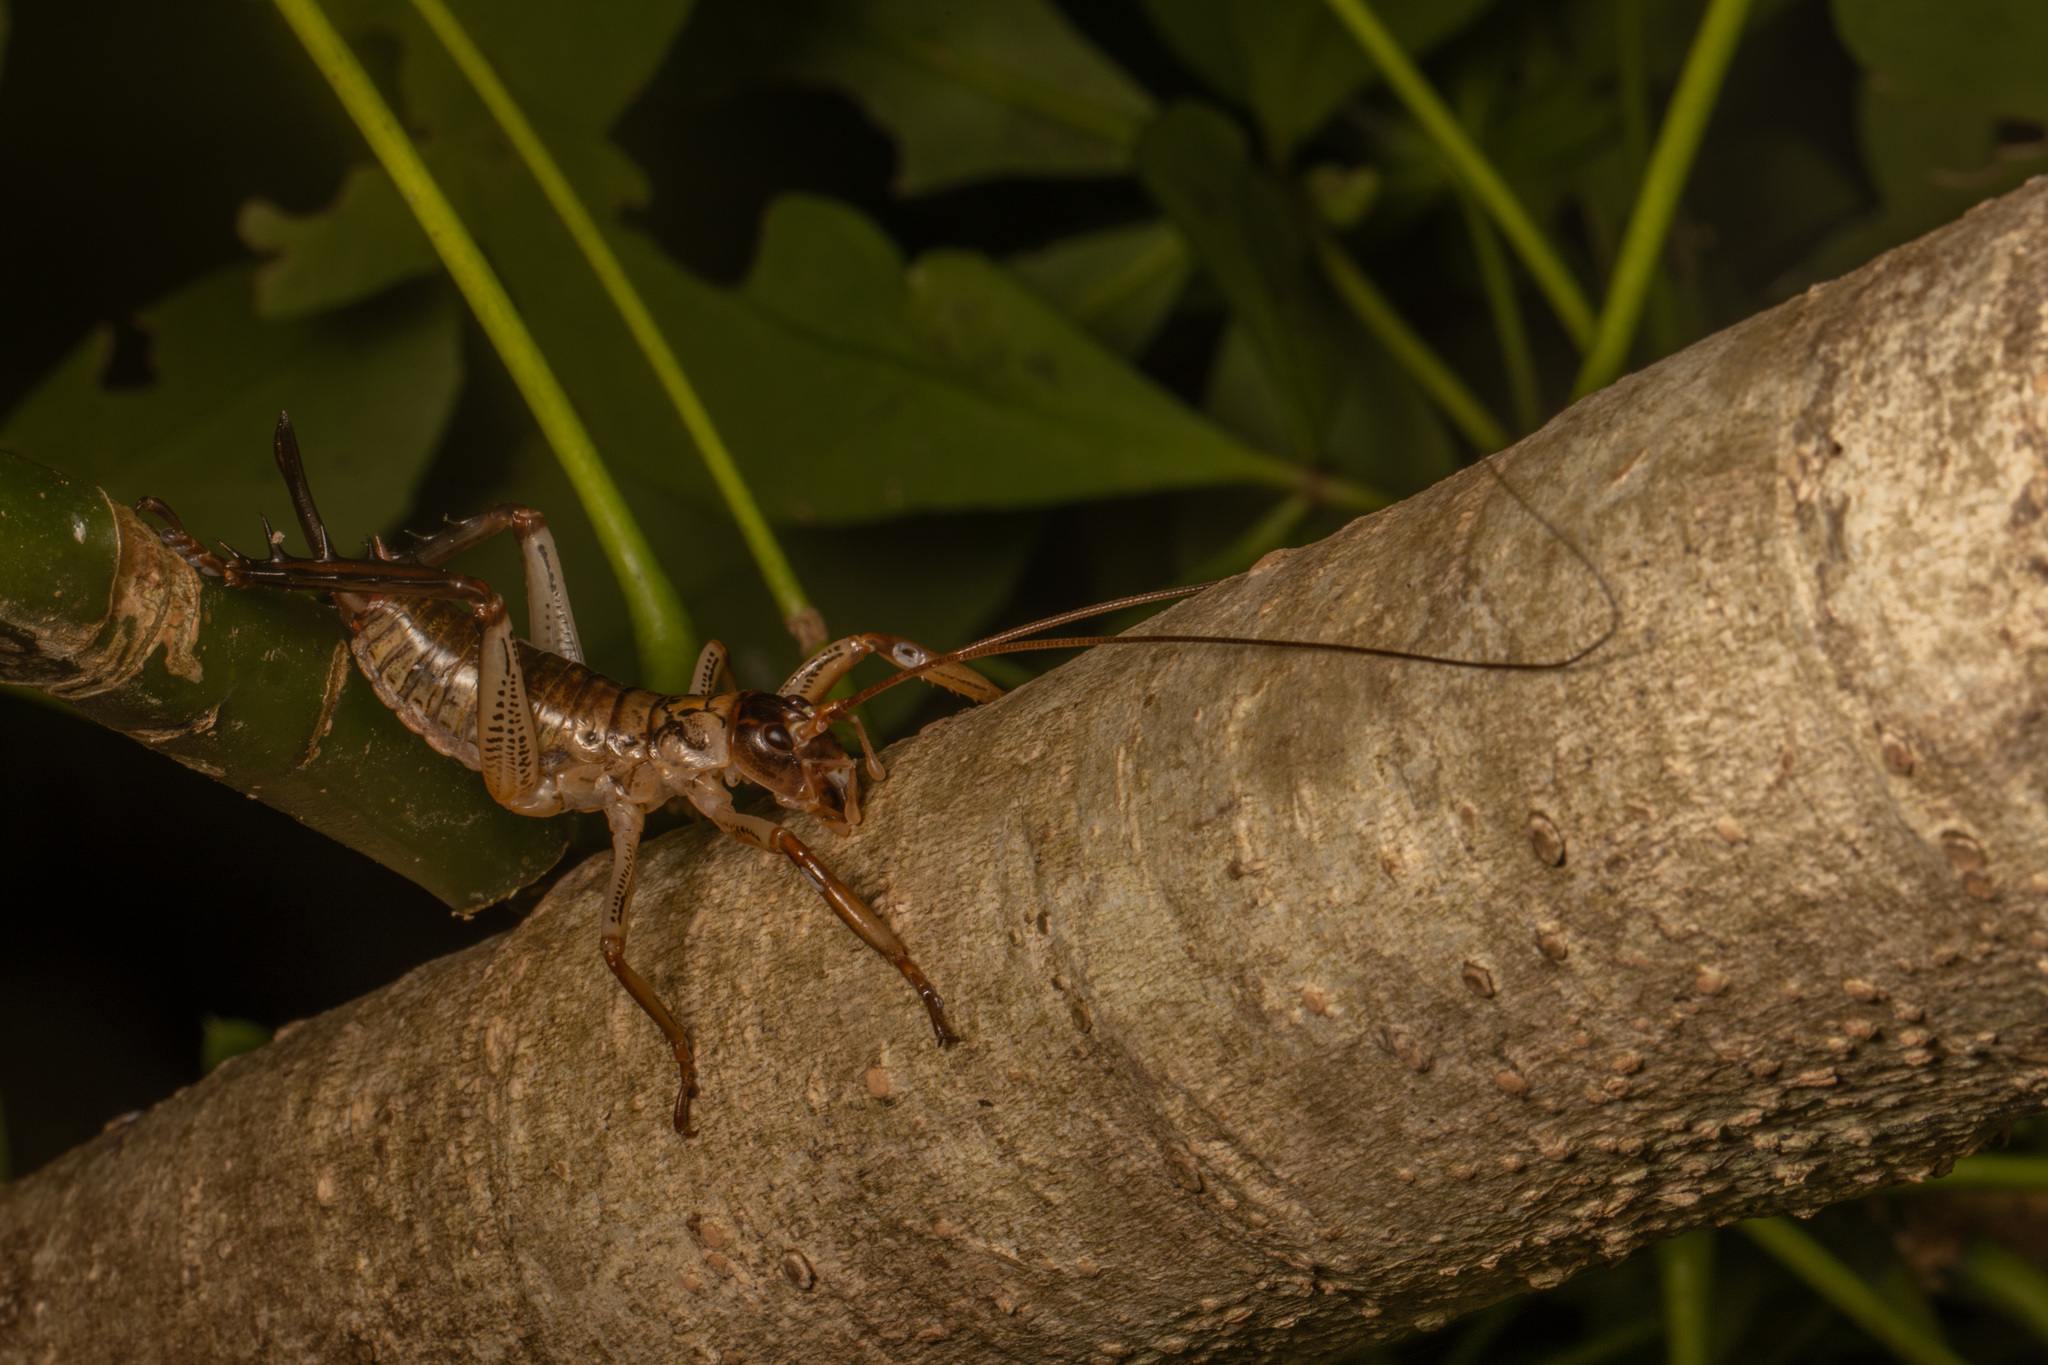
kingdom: Animalia
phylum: Arthropoda
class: Insecta
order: Orthoptera
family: Anostostomatidae
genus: Hemideina
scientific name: Hemideina thoracica
